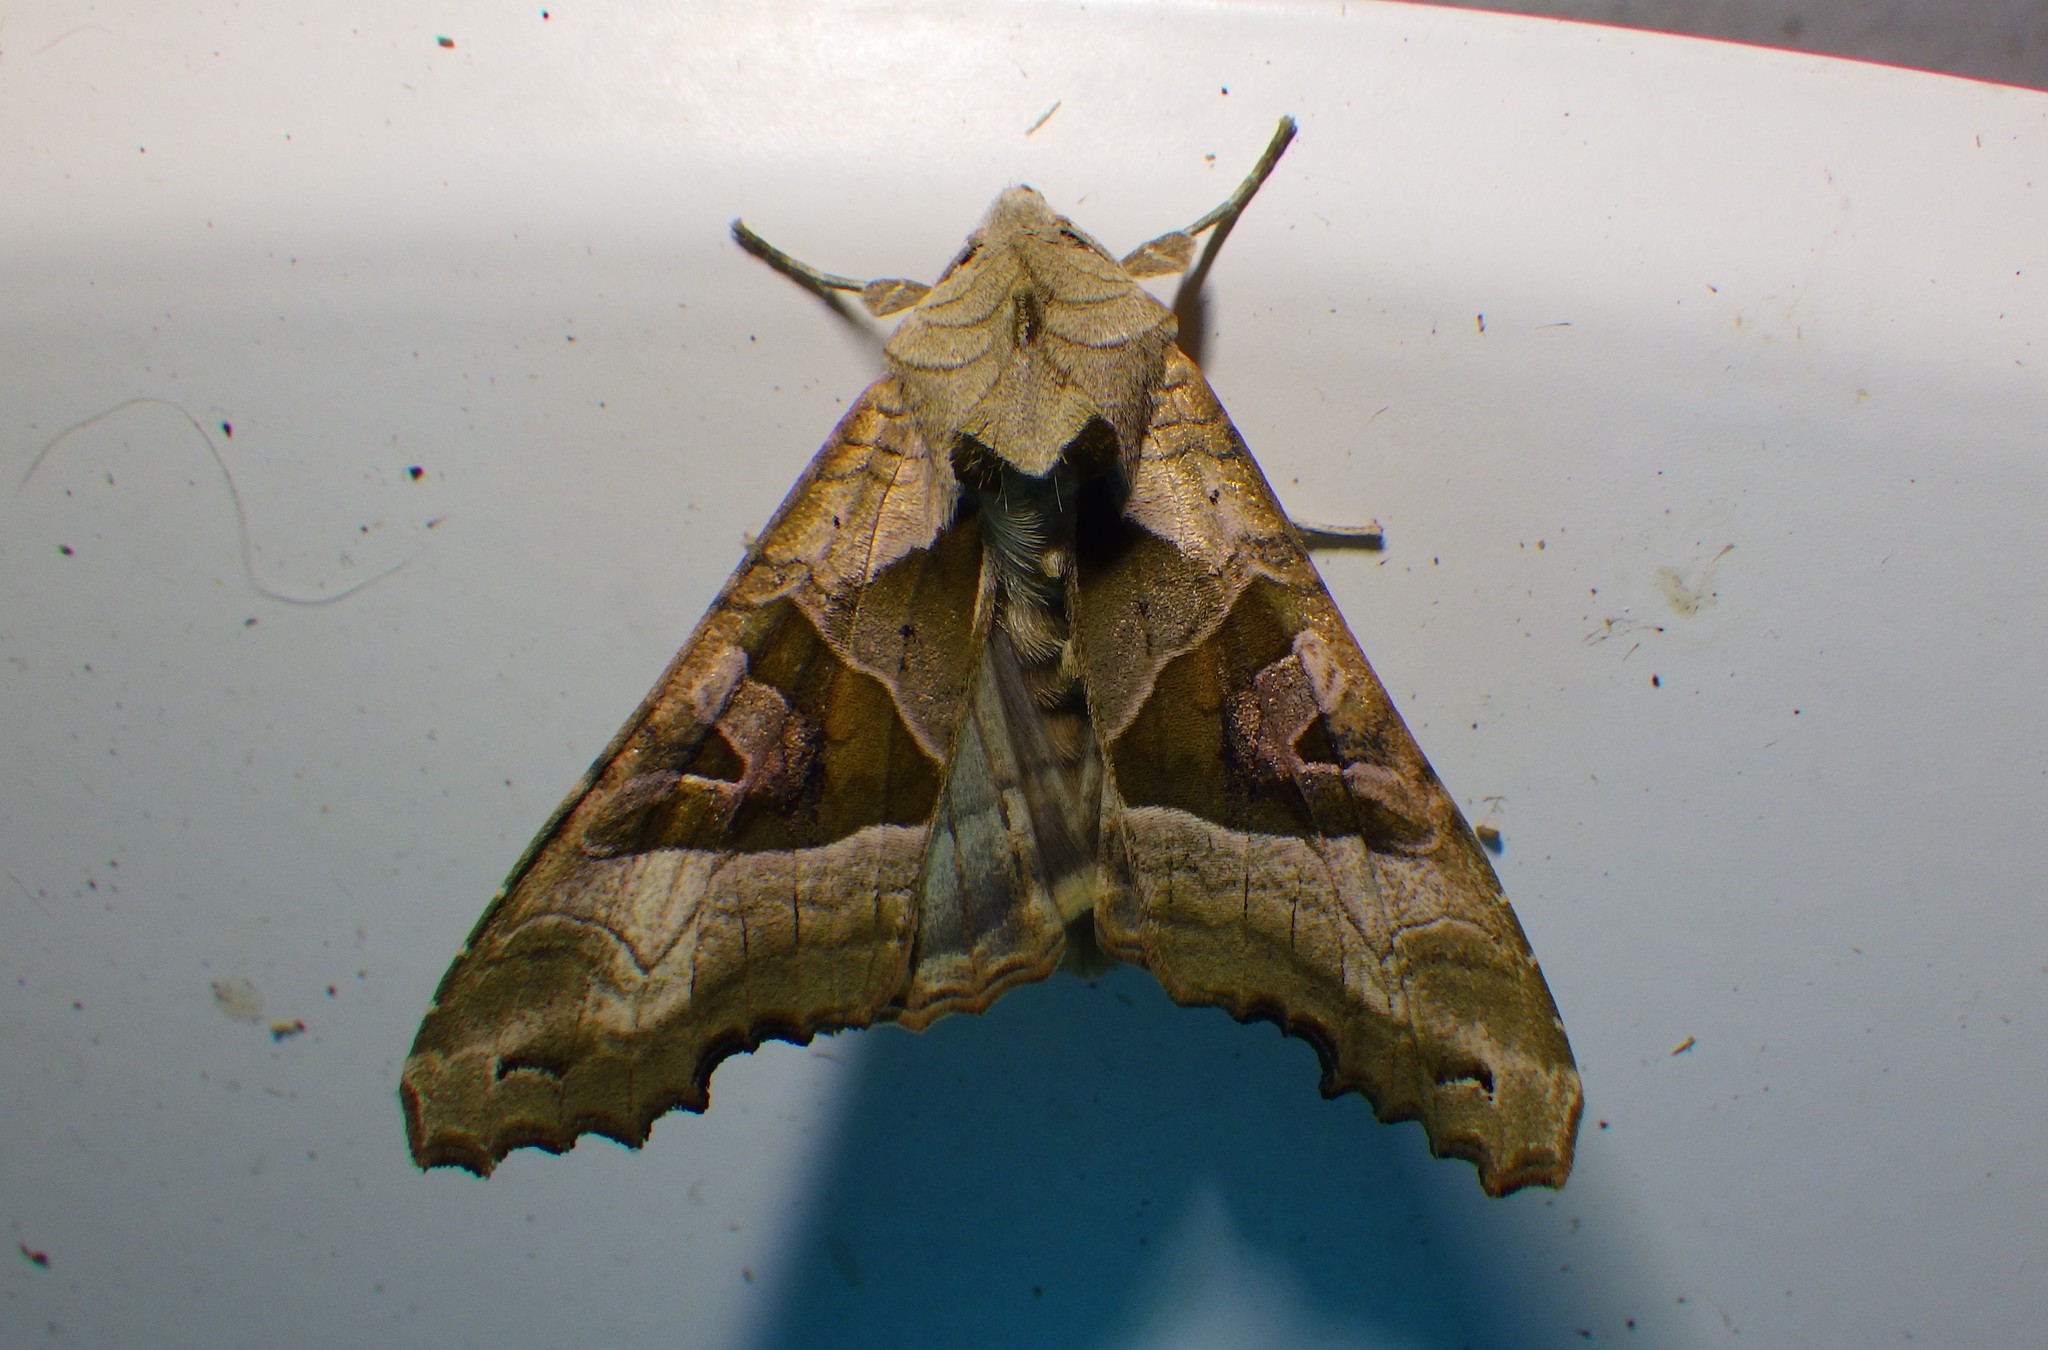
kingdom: Animalia
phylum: Arthropoda
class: Insecta
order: Lepidoptera
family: Noctuidae
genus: Phlogophora
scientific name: Phlogophora meticulosa
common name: Angle shades
